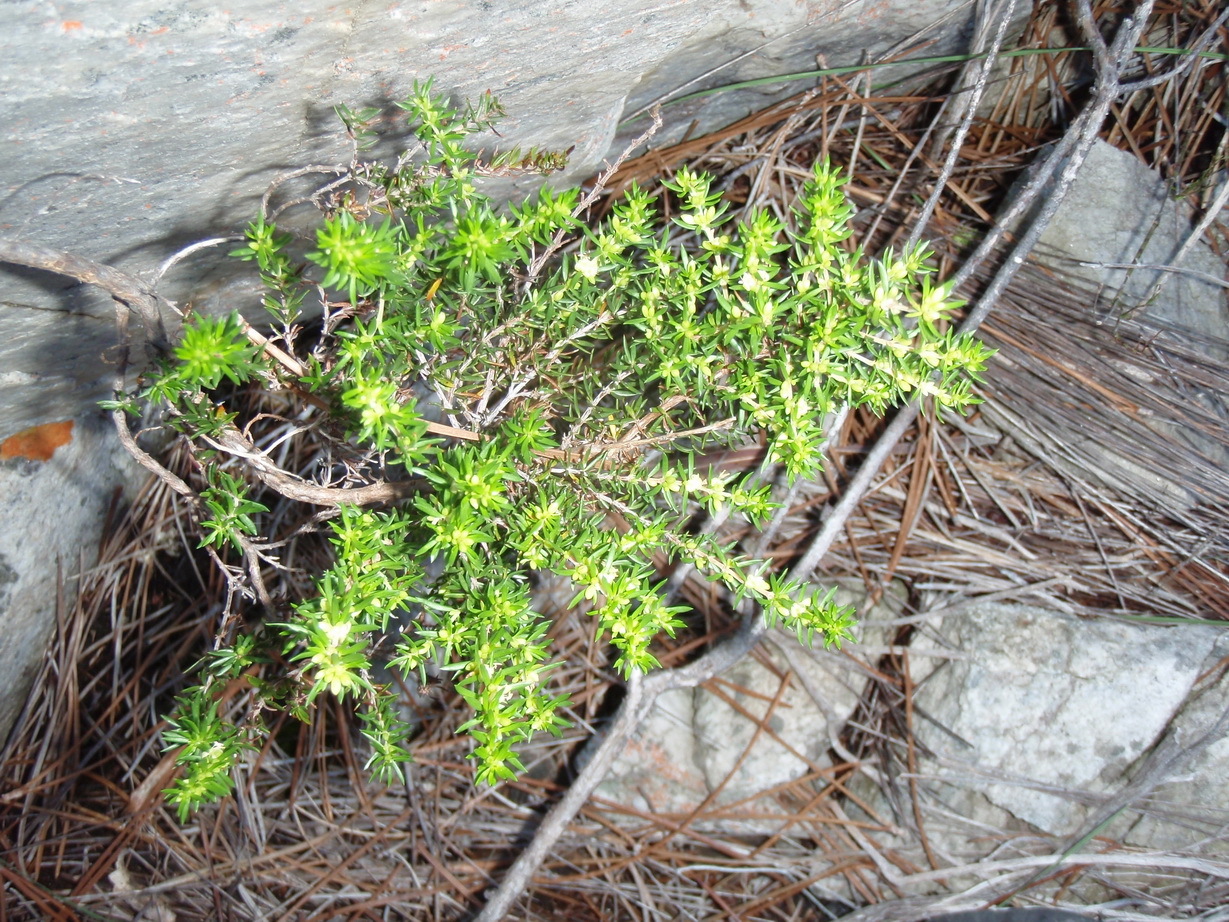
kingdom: Plantae
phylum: Tracheophyta
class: Magnoliopsida
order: Gentianales
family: Rubiaceae
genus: Anthospermum
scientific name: Anthospermum galioides
